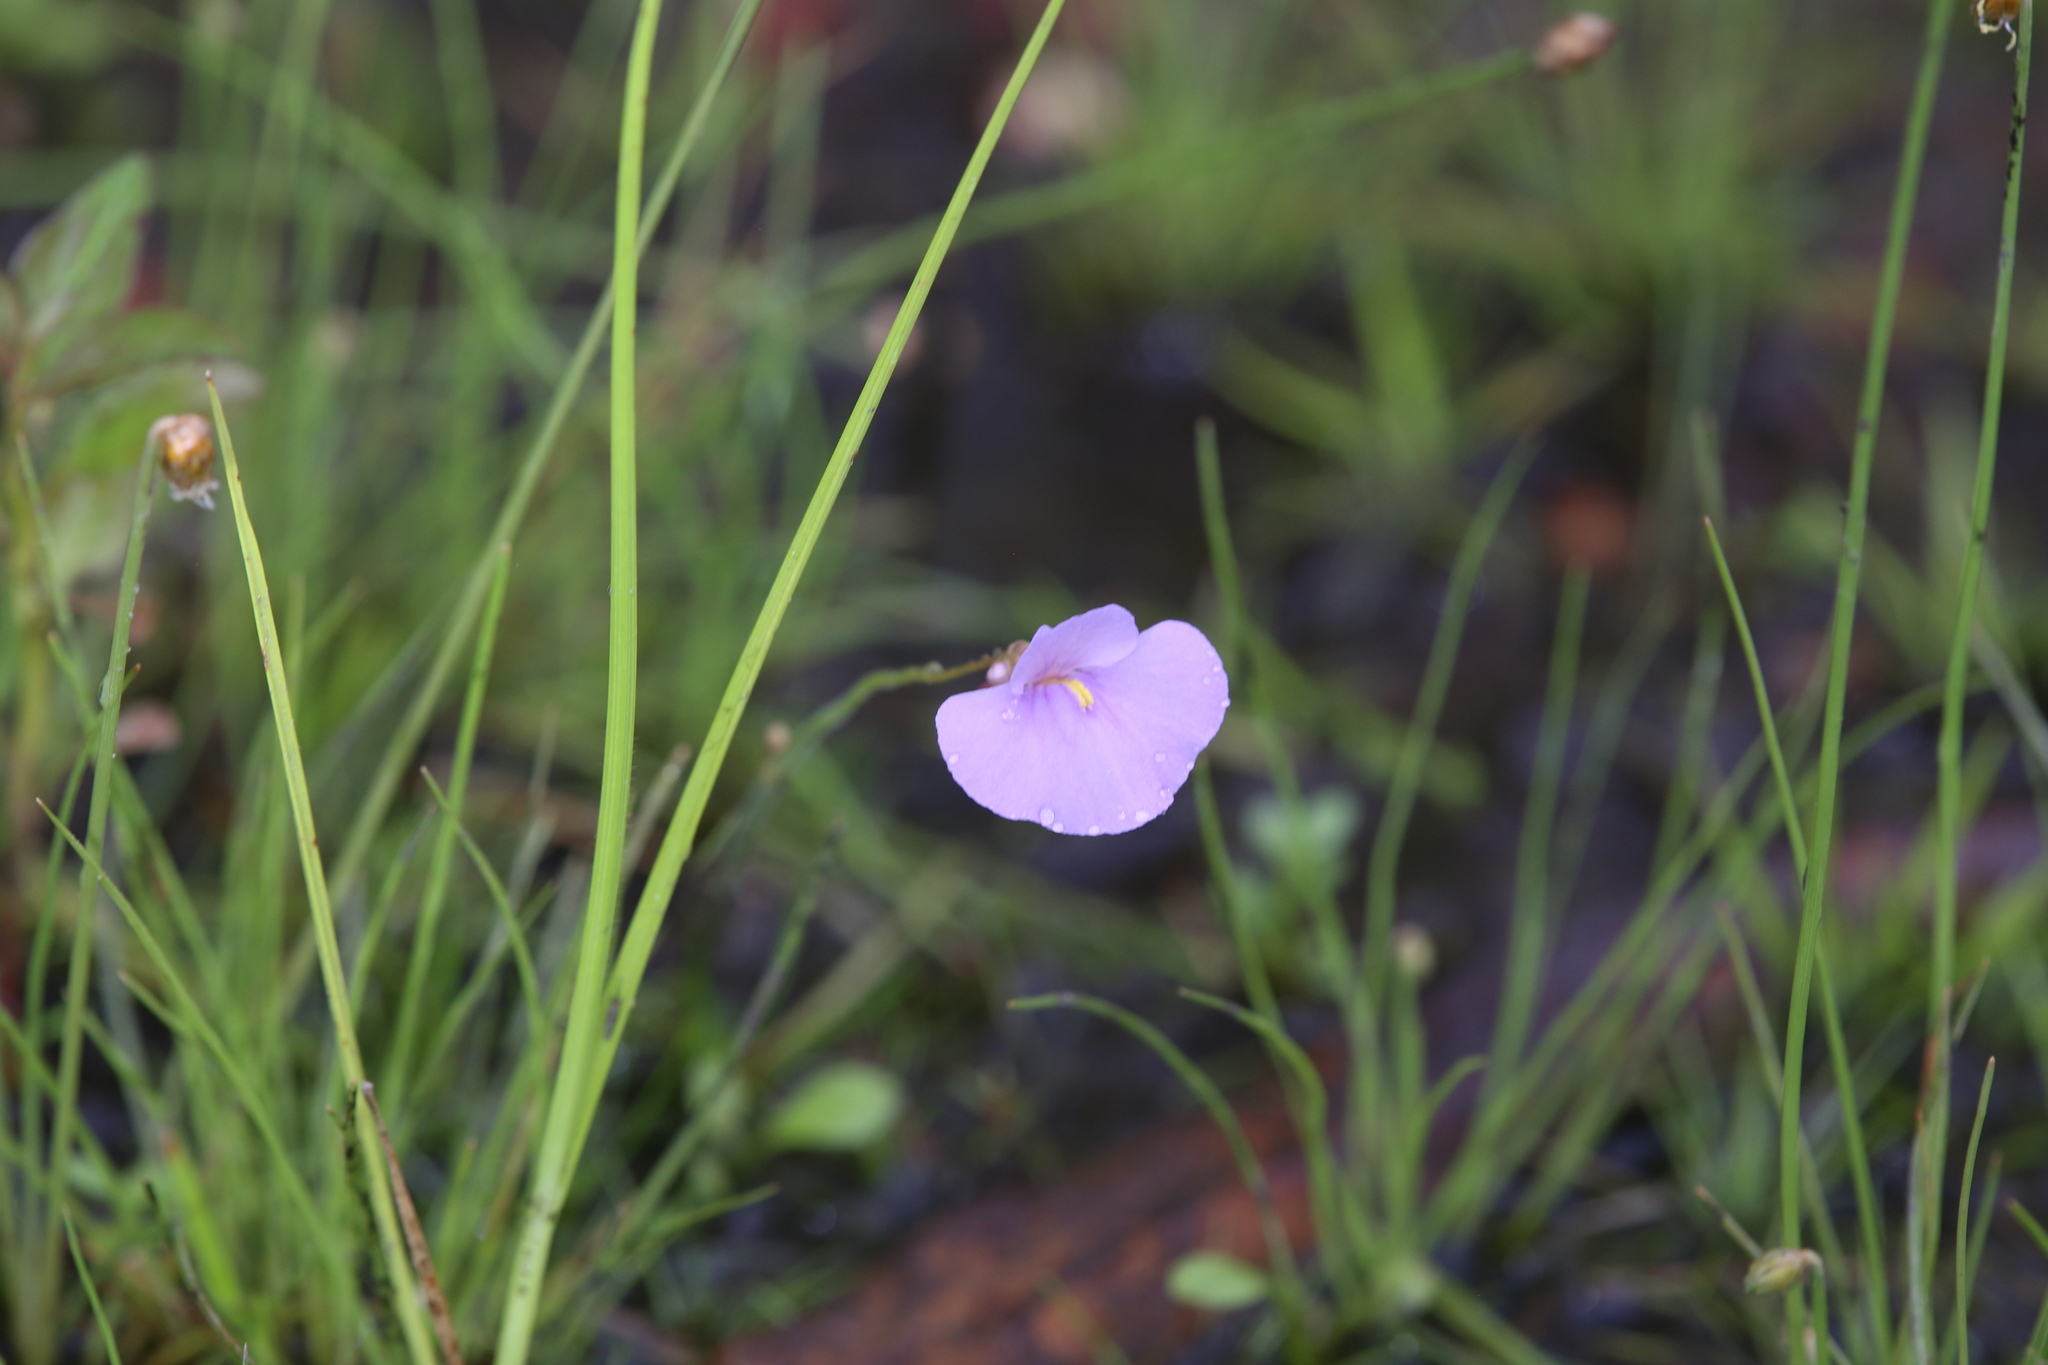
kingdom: Plantae
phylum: Tracheophyta
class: Magnoliopsida
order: Lamiales
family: Lentibulariaceae
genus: Utricularia
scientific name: Utricularia lasiocaulis
